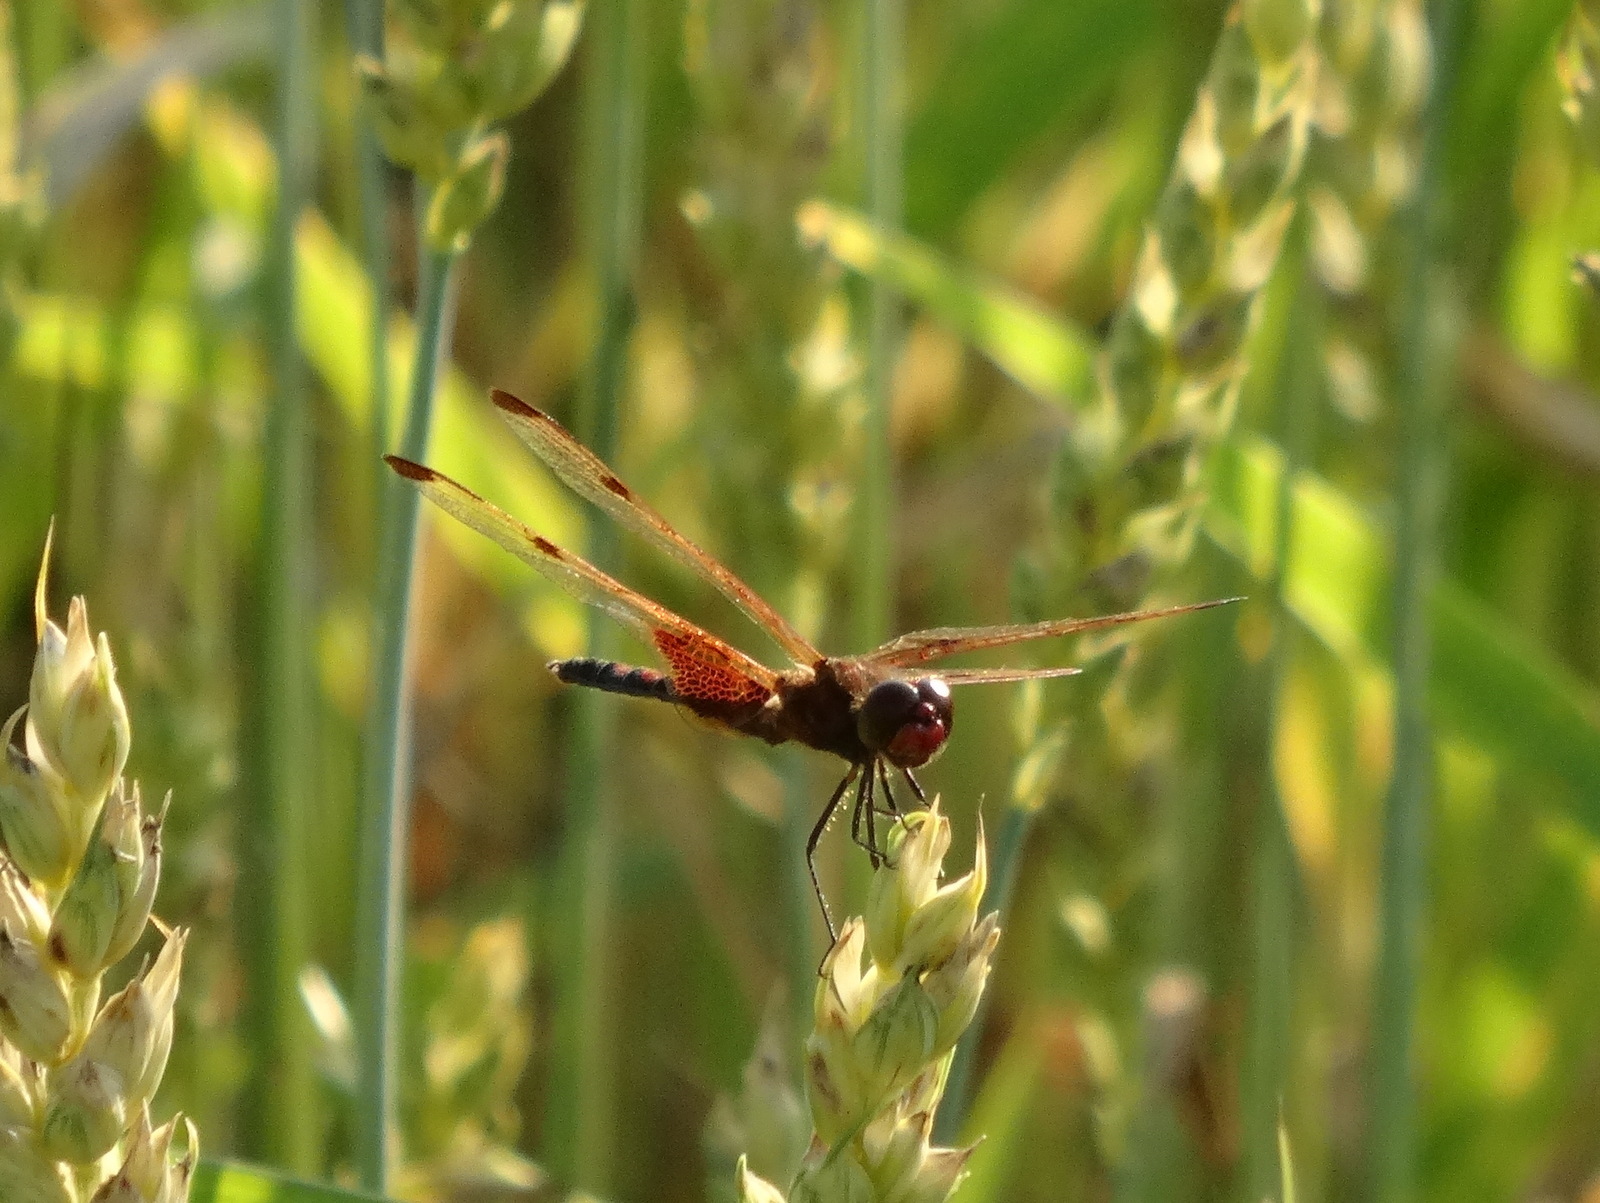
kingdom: Animalia
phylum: Arthropoda
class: Insecta
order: Odonata
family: Libellulidae
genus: Celithemis
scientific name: Celithemis elisa
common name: Calico pennant
